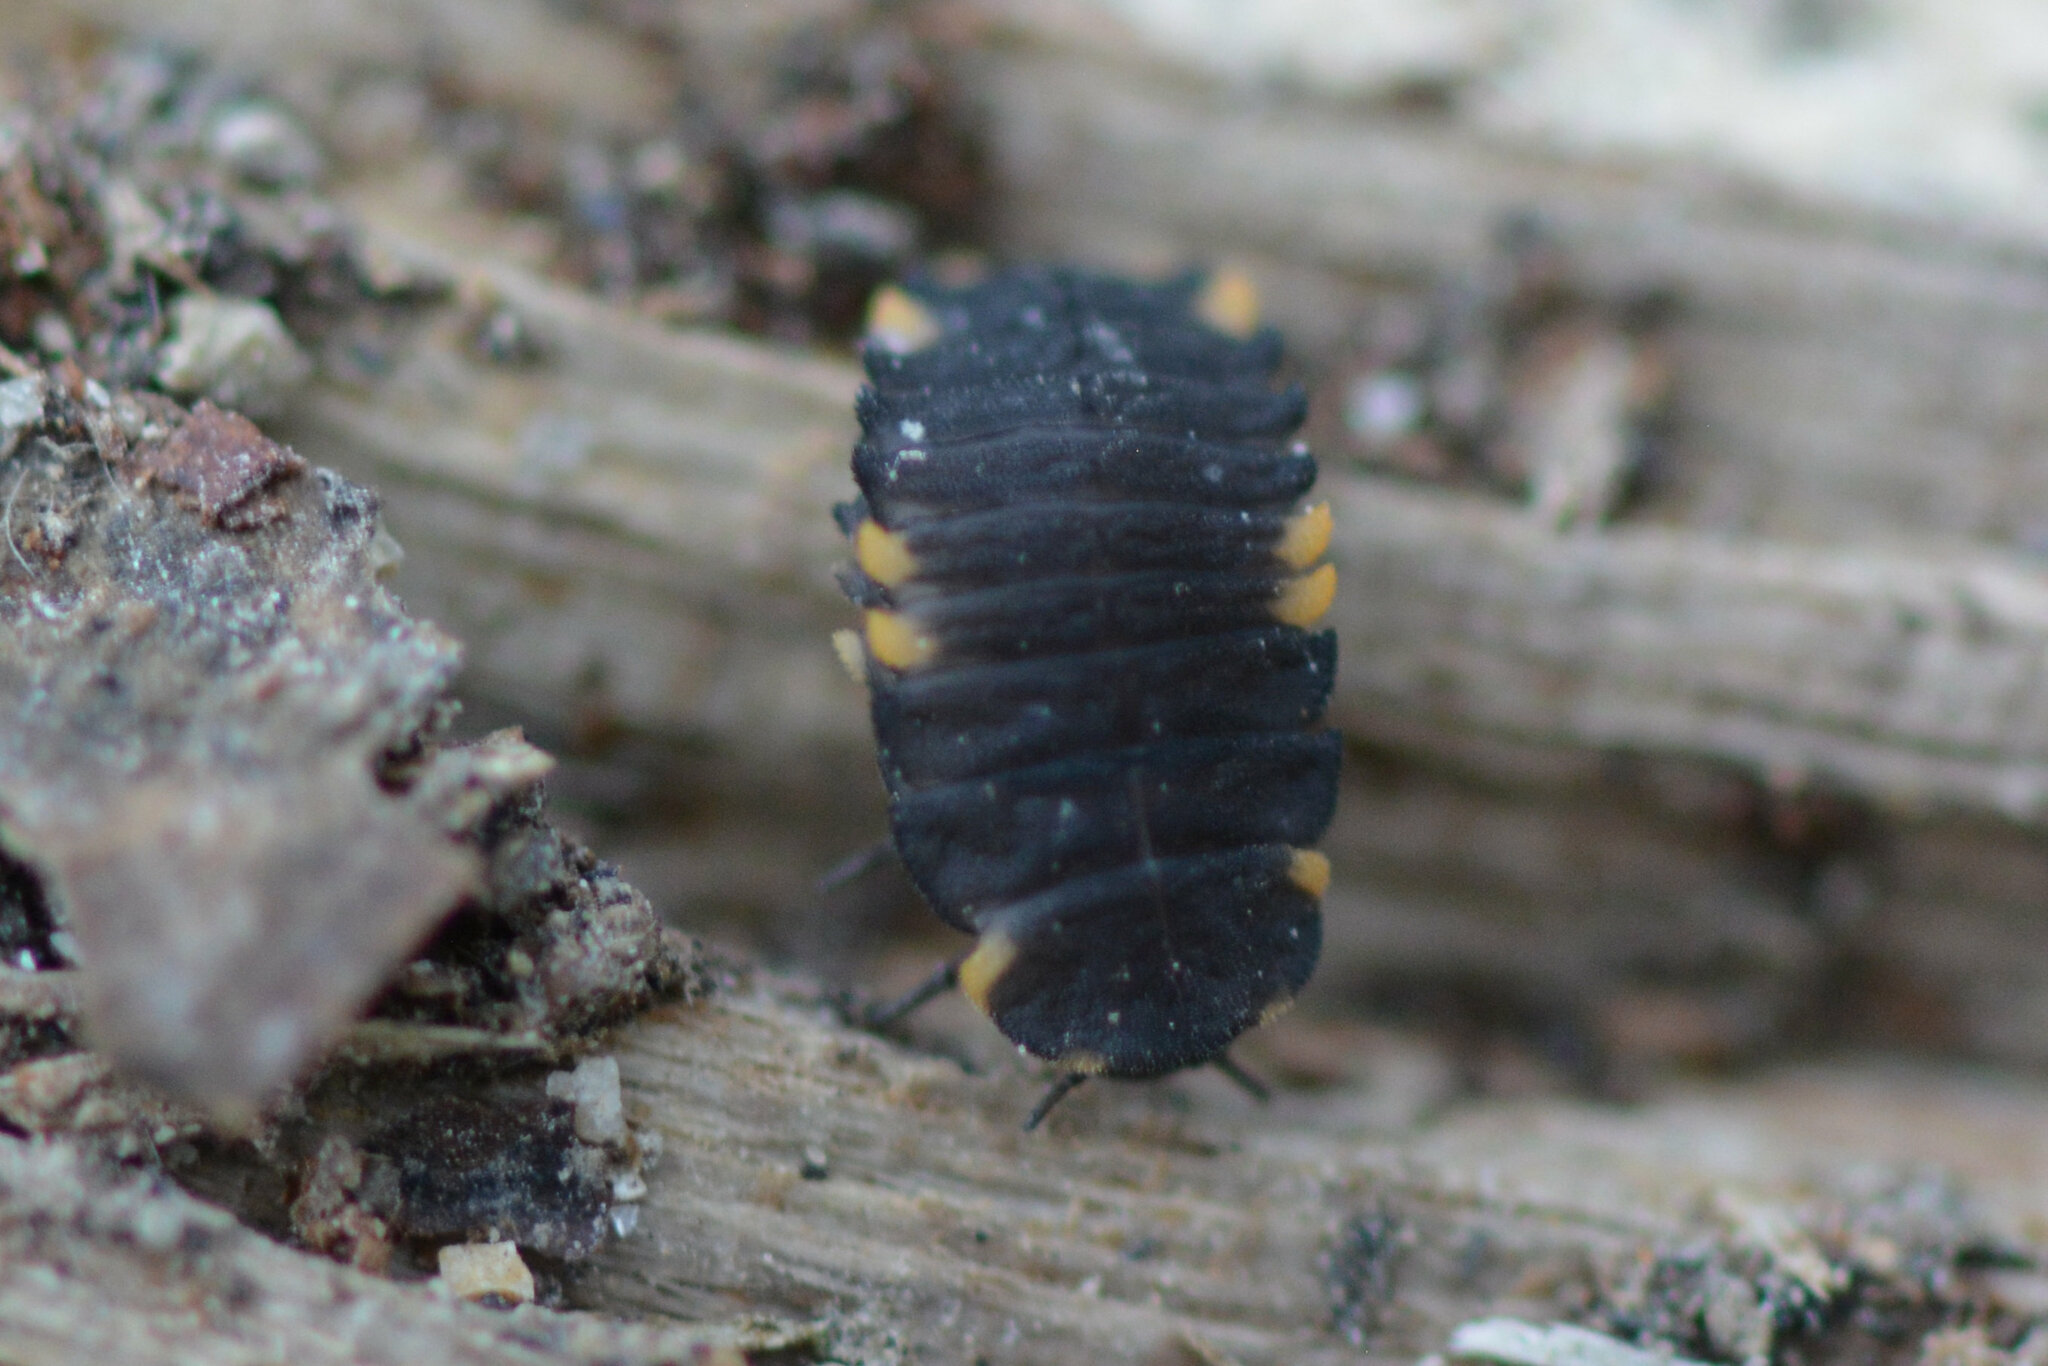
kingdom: Animalia
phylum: Arthropoda
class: Insecta
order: Coleoptera
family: Endomychidae
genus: Endomychus
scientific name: Endomychus coccineus
